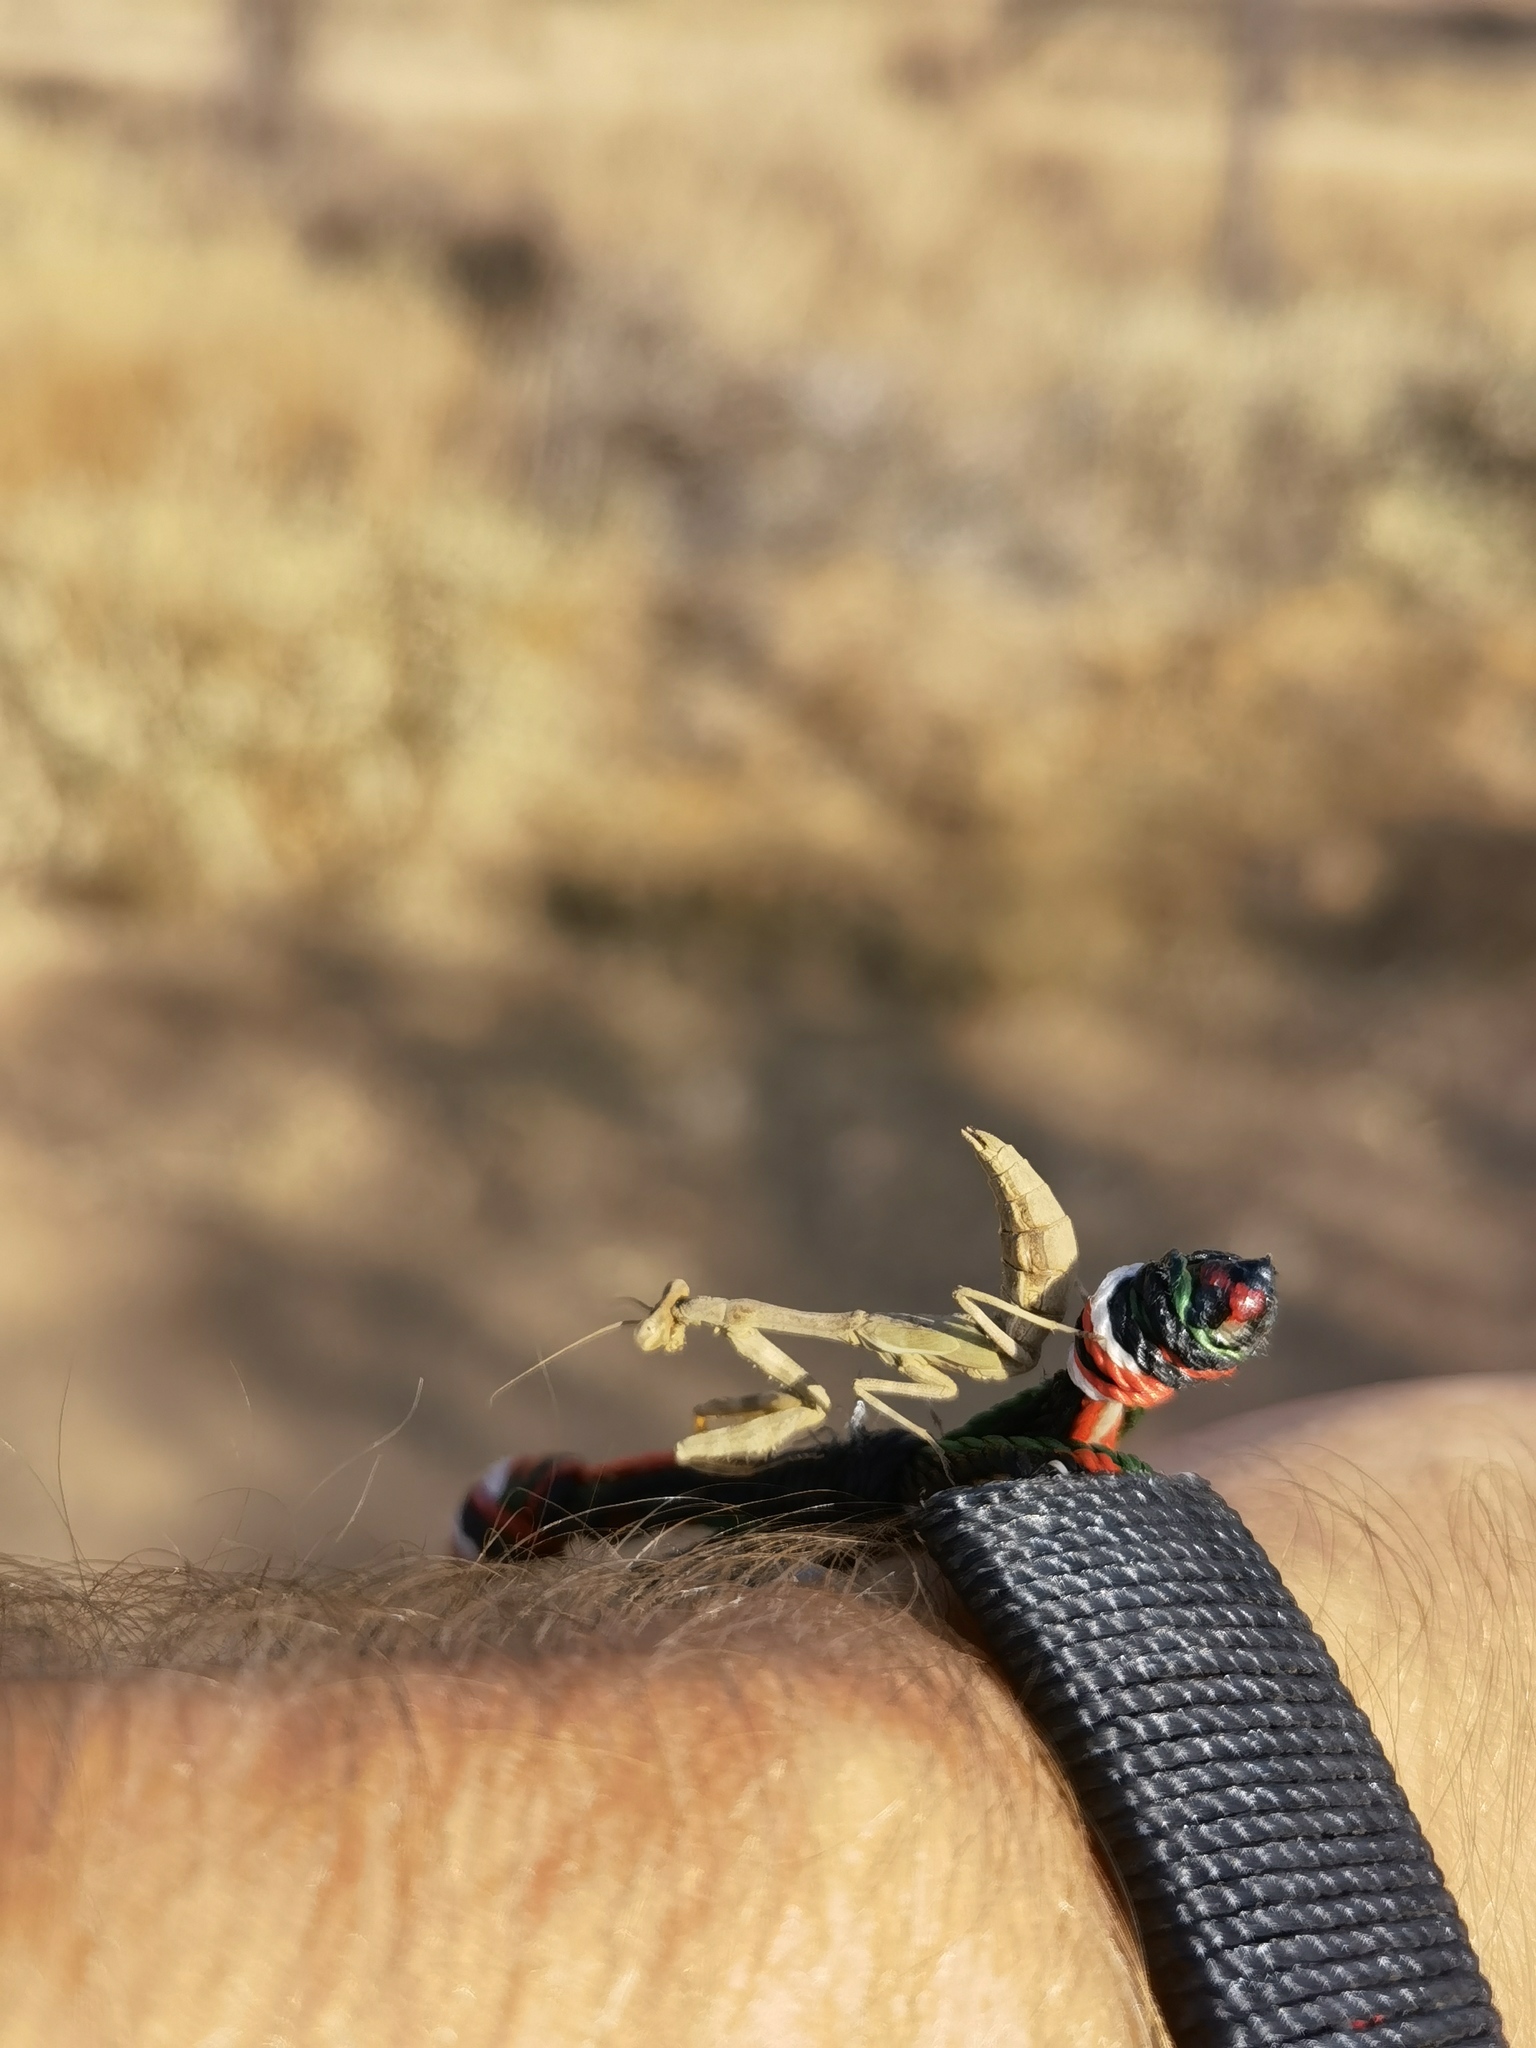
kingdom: Animalia
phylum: Arthropoda
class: Insecta
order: Mantodea
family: Miomantidae
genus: Parasphendale
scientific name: Parasphendale affinis
